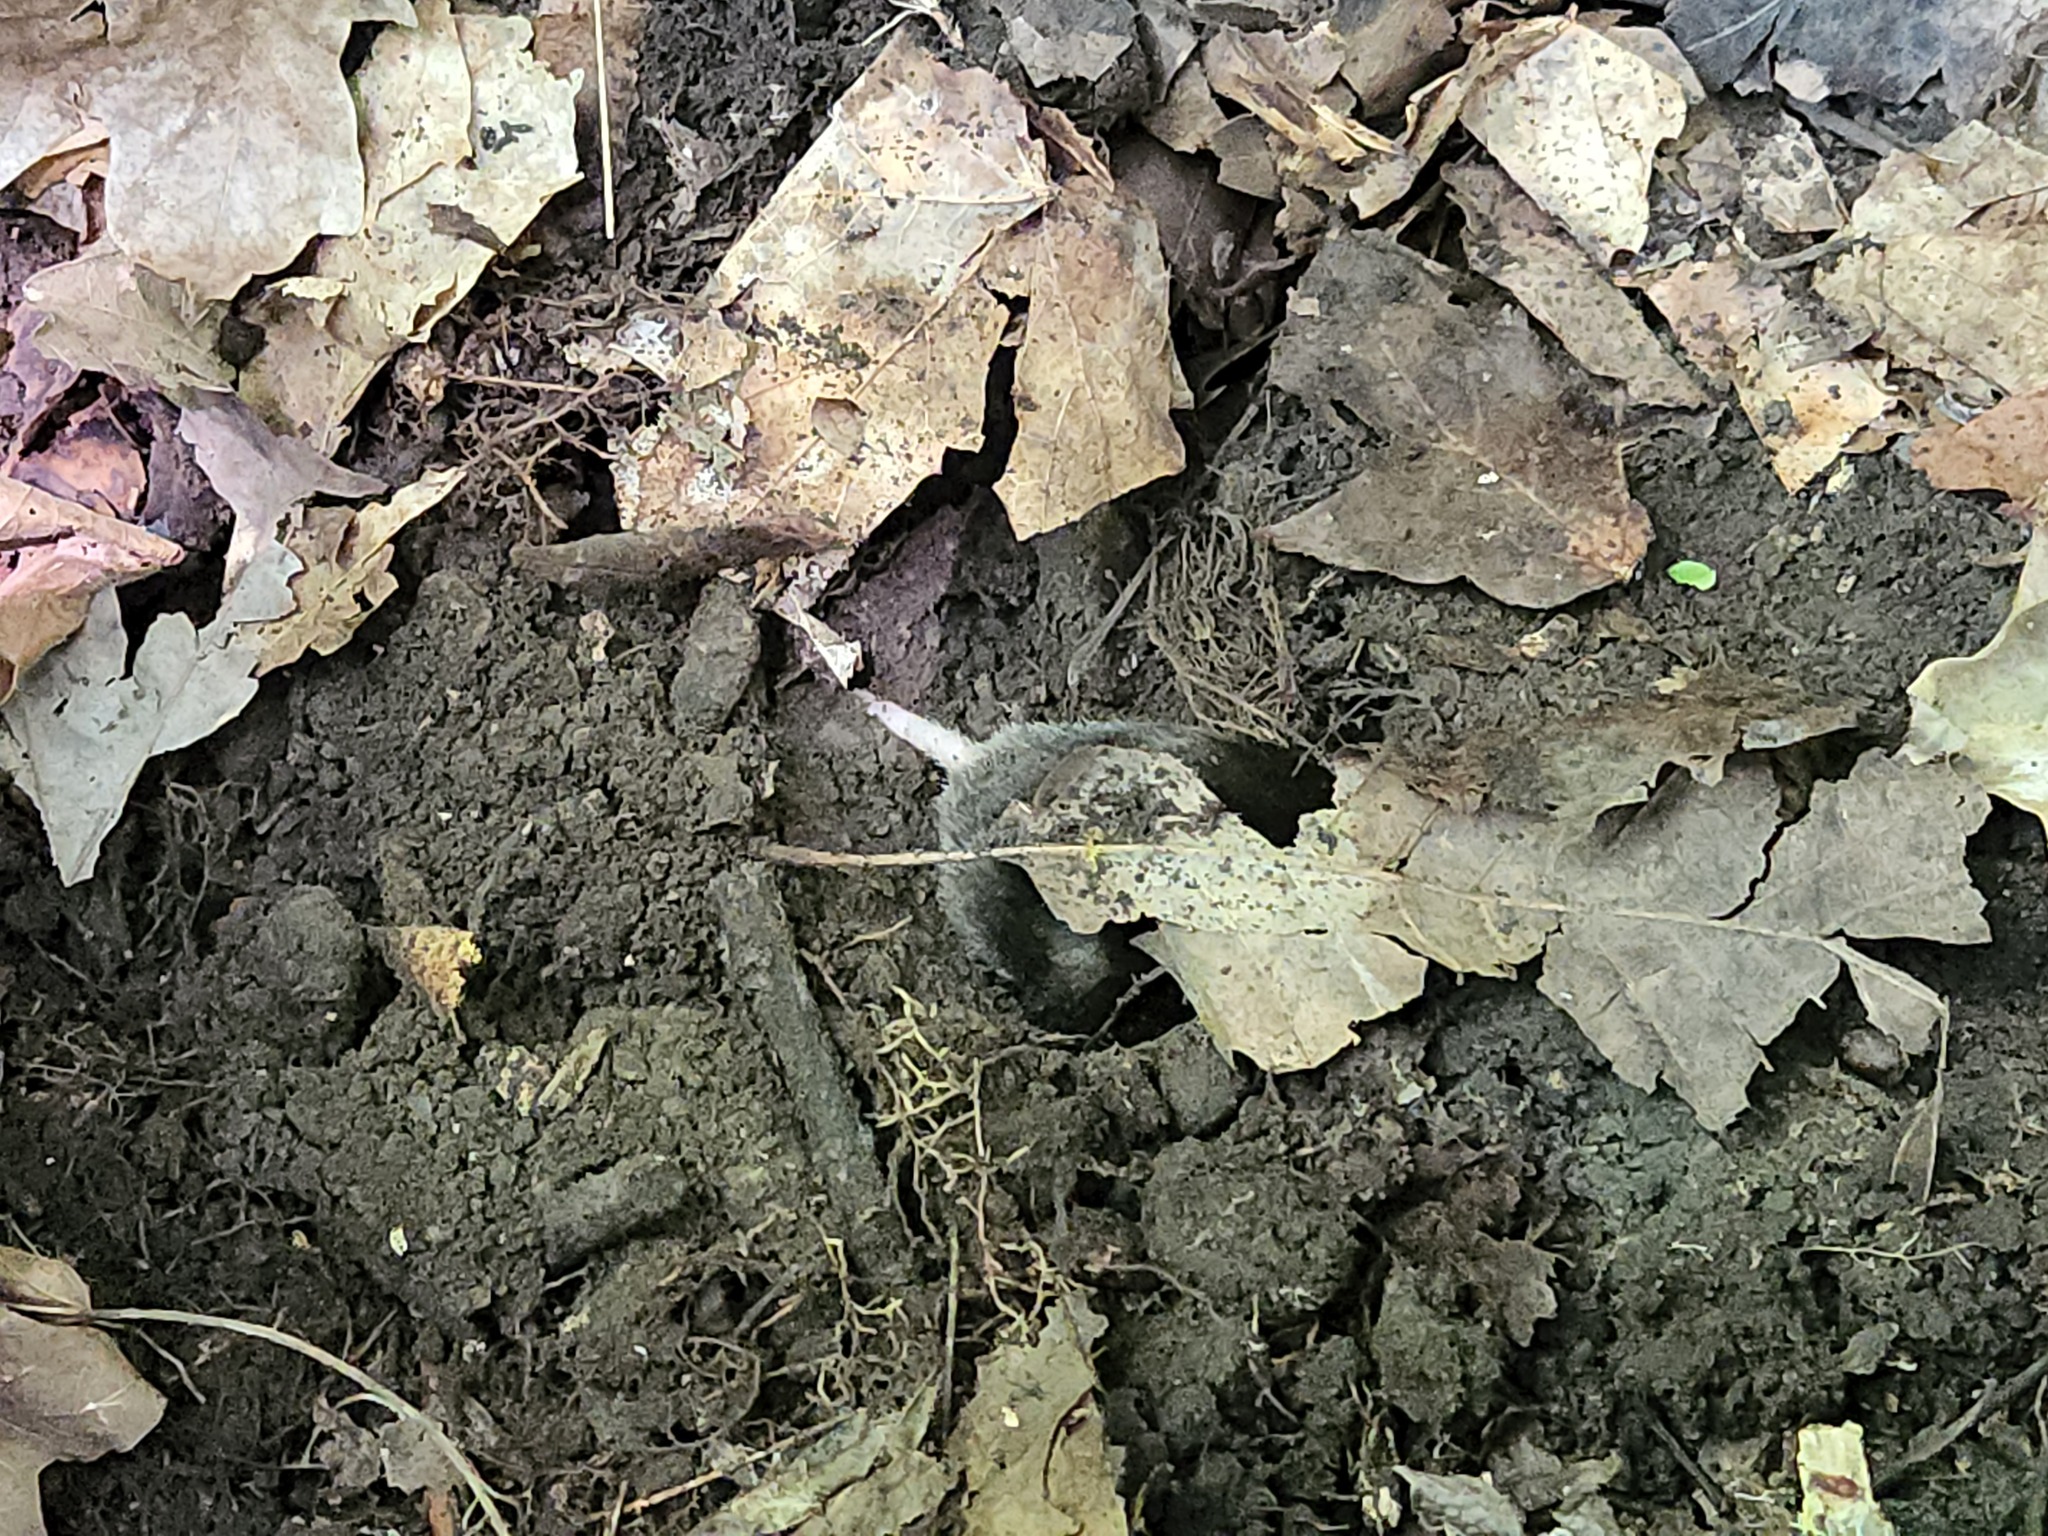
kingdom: Animalia
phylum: Chordata
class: Mammalia
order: Soricomorpha
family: Talpidae
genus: Scalopus
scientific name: Scalopus aquaticus
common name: Eastern mole
